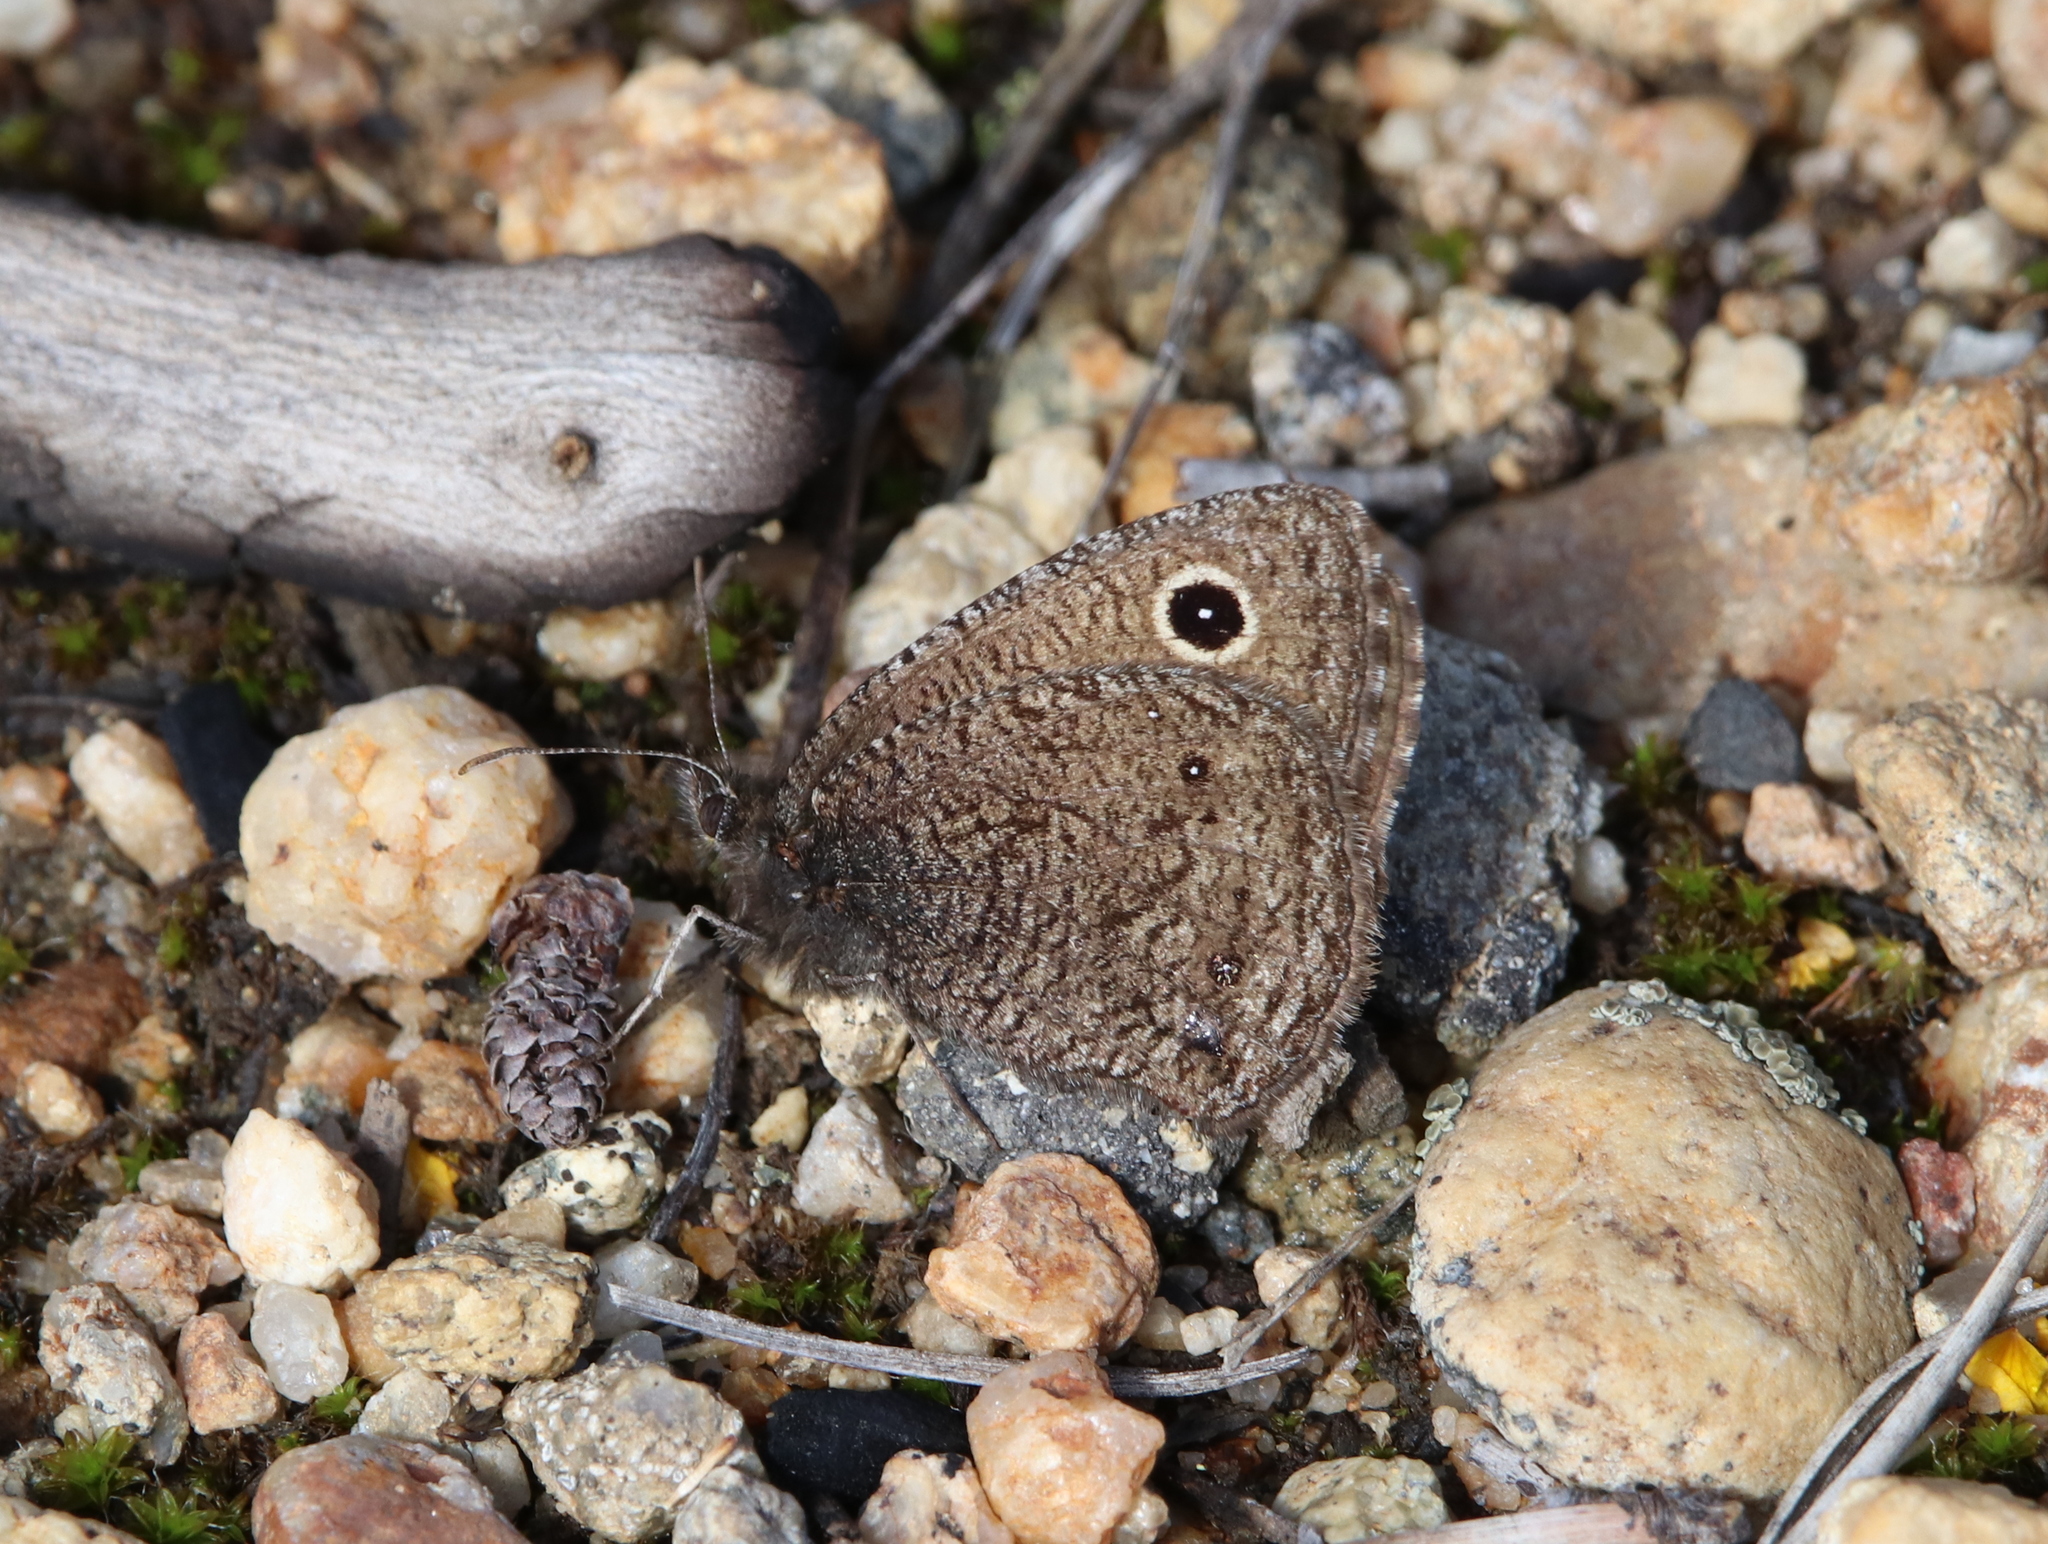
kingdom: Animalia
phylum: Arthropoda
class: Insecta
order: Lepidoptera
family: Nymphalidae
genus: Cercyonis
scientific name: Cercyonis oetus
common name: Small wood-nymph
